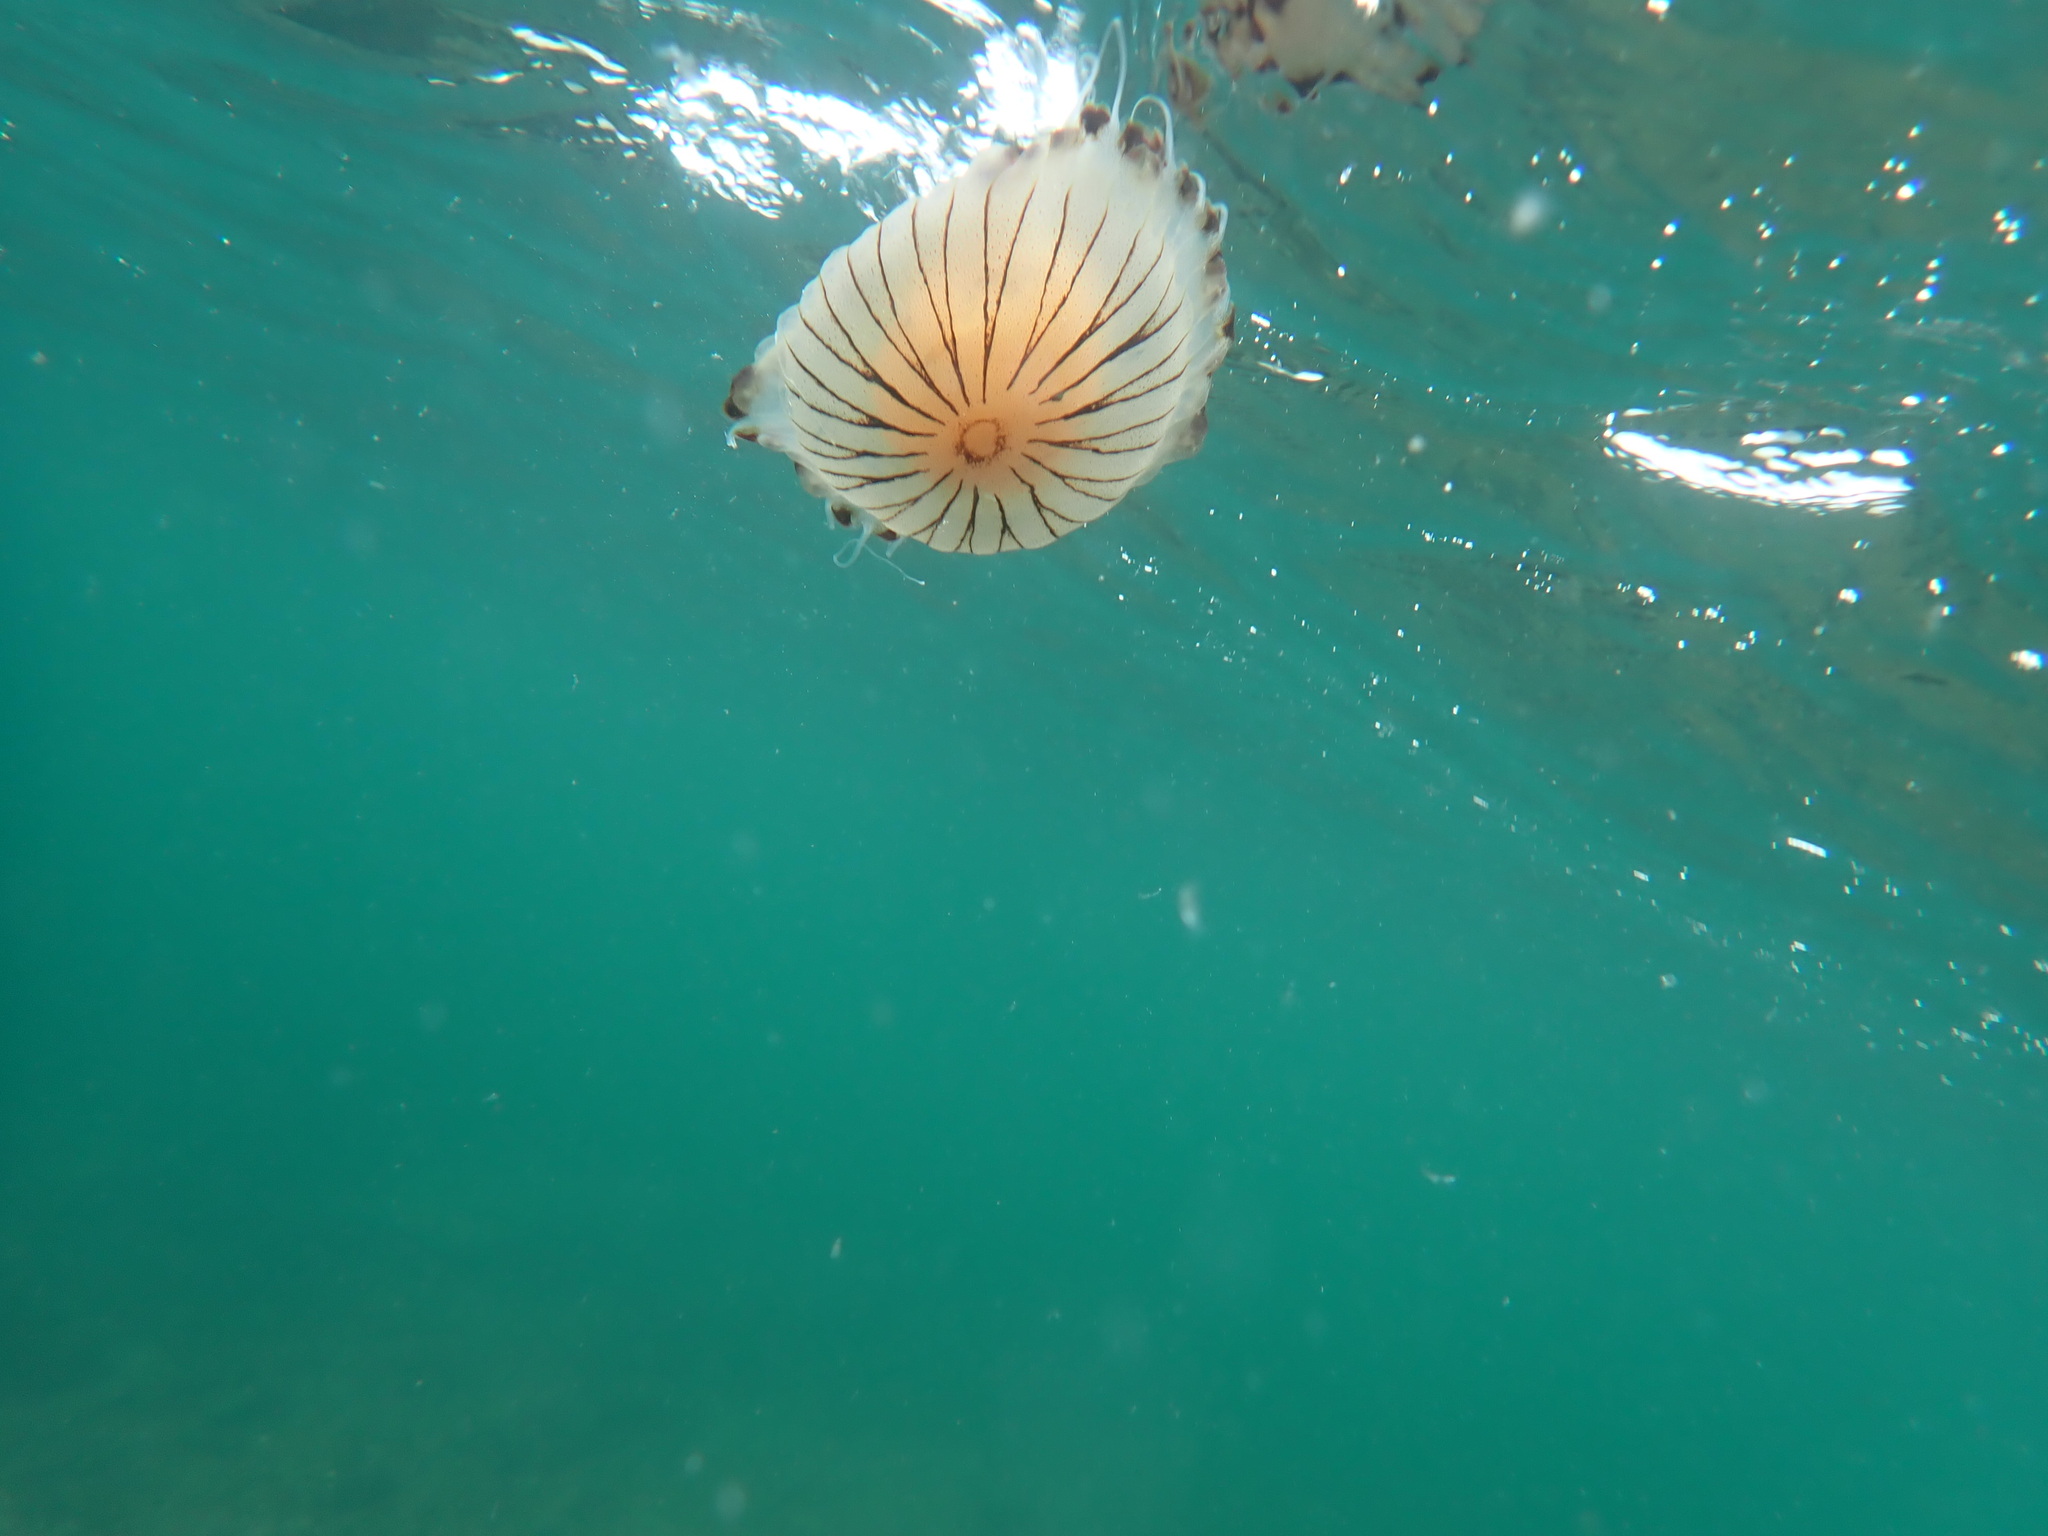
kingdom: Animalia
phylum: Cnidaria
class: Scyphozoa
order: Semaeostomeae
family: Pelagiidae
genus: Chrysaora
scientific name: Chrysaora hysoscella
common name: Compass jellyfish
